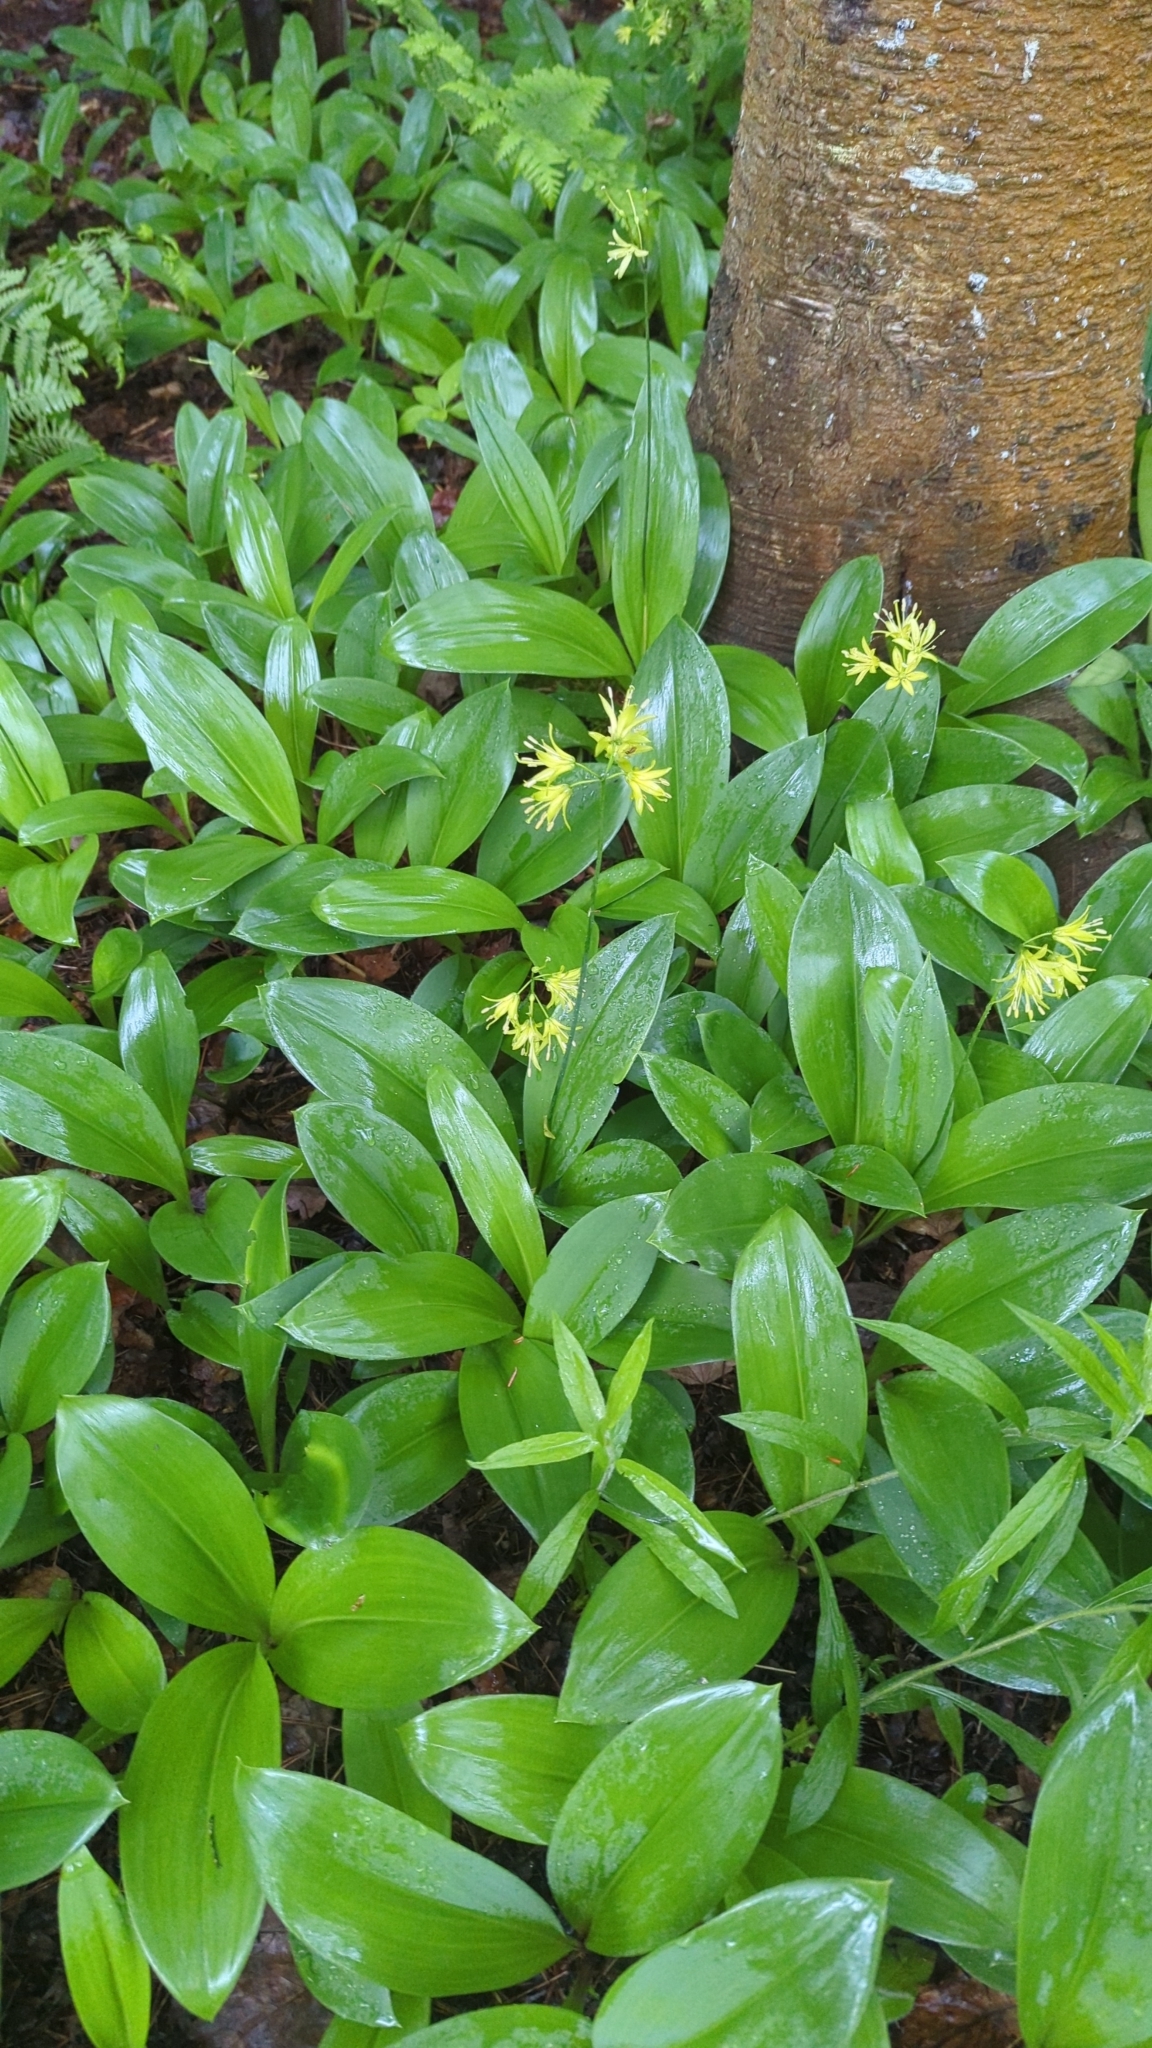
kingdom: Plantae
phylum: Tracheophyta
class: Liliopsida
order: Liliales
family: Liliaceae
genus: Clintonia
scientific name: Clintonia borealis
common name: Yellow clintonia
